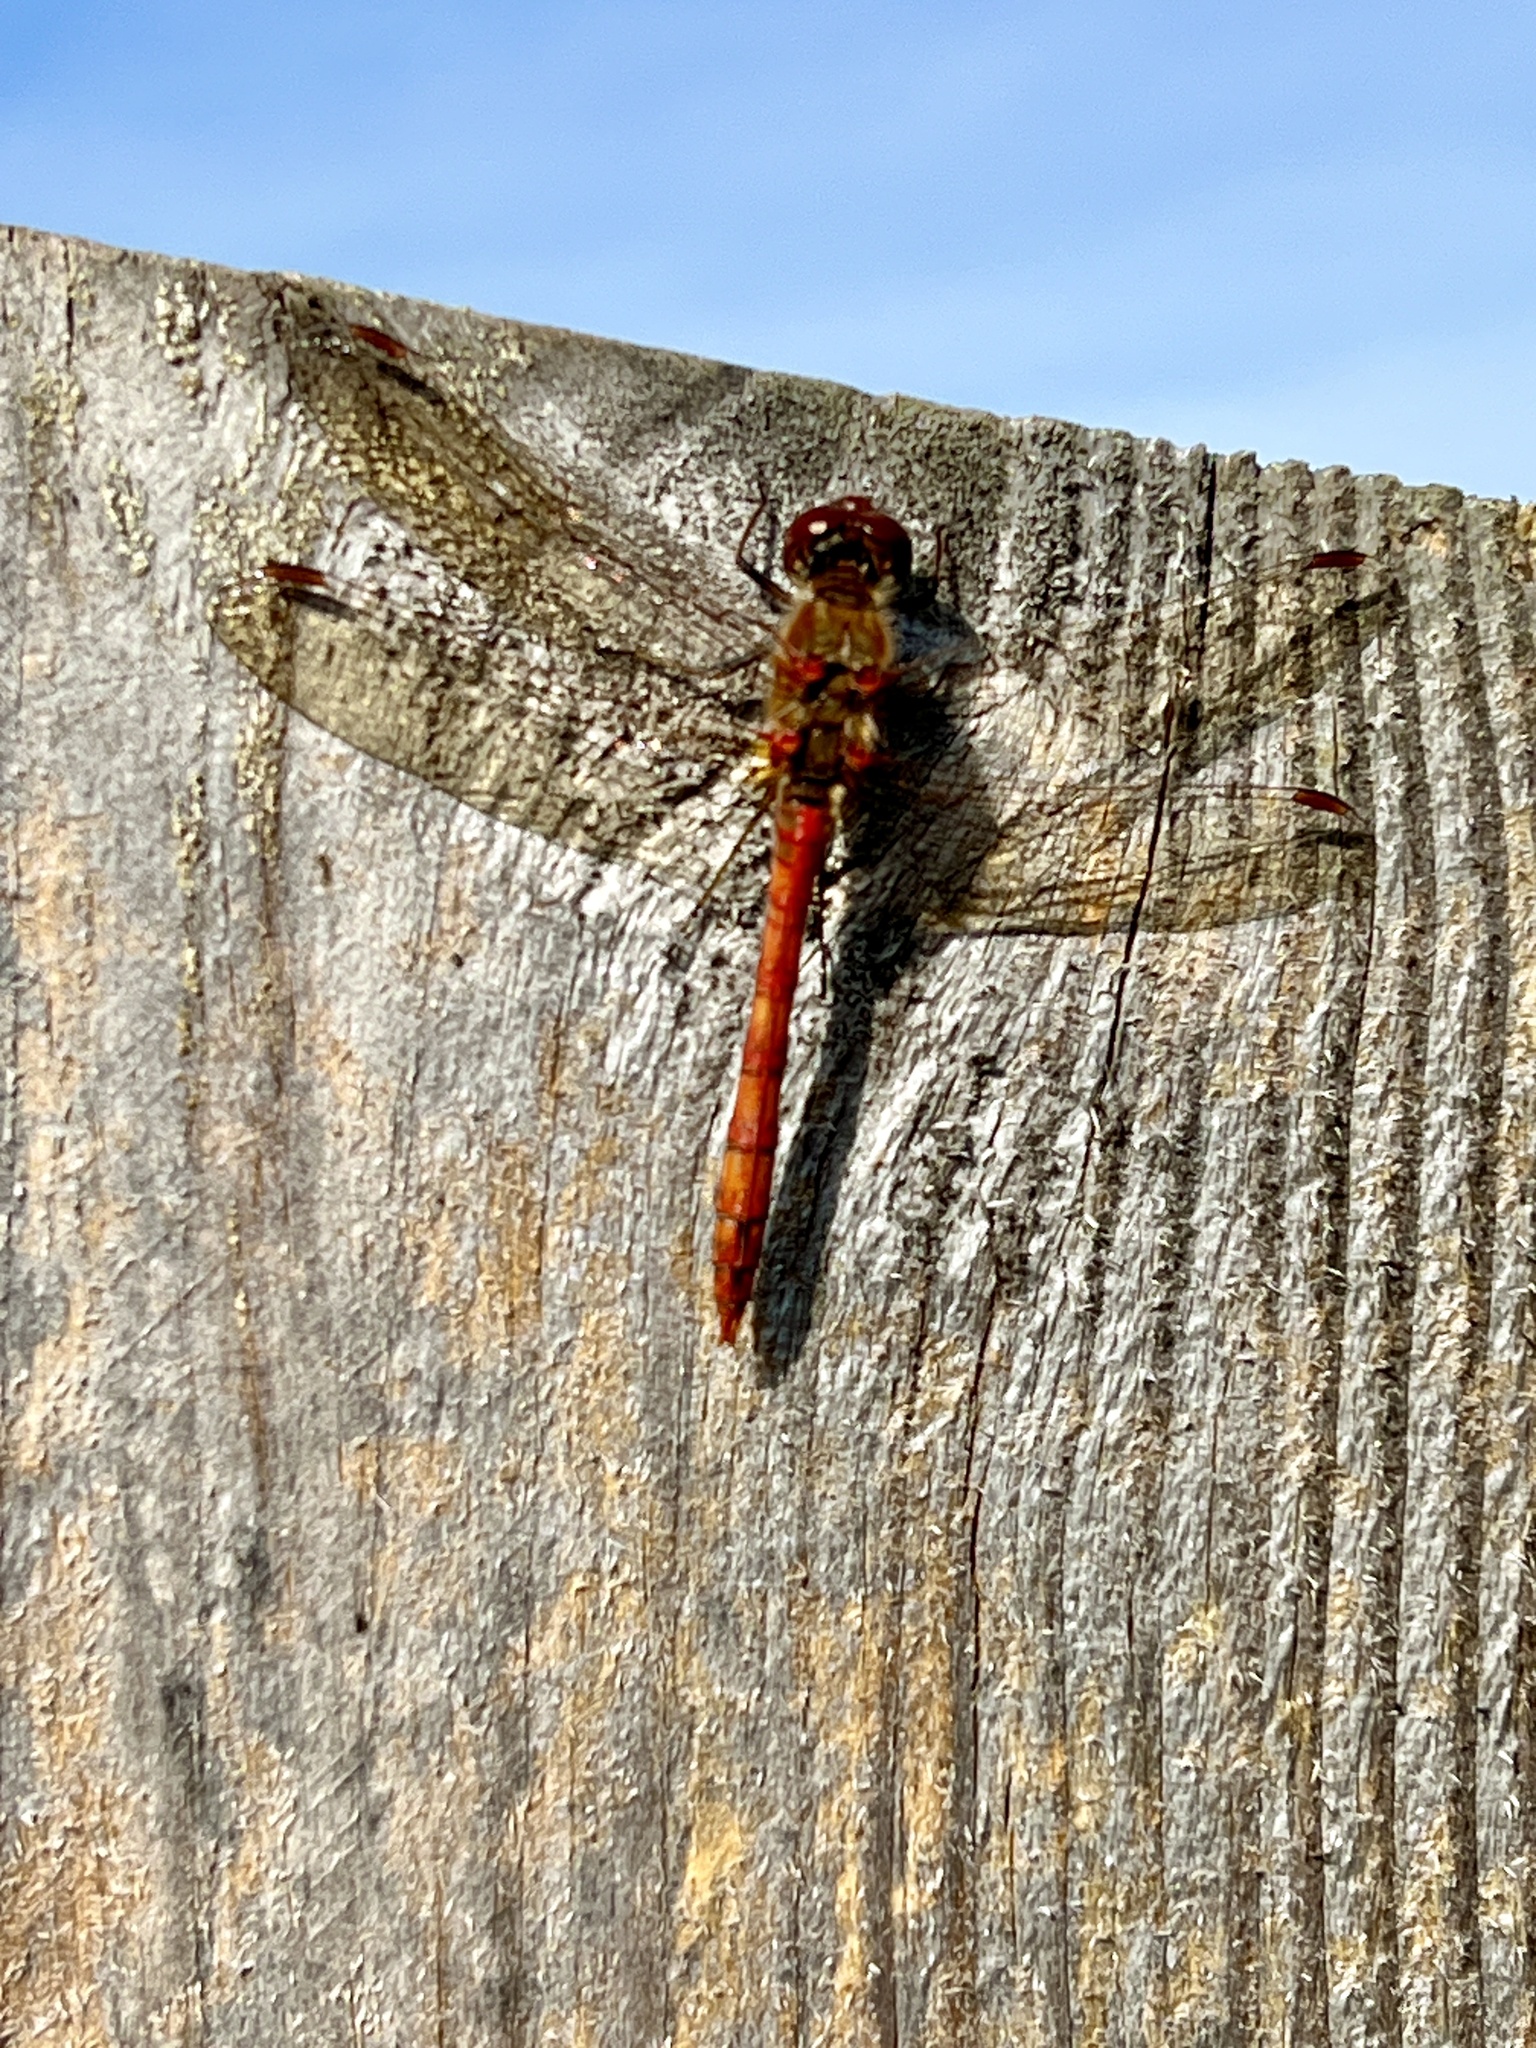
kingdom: Animalia
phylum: Arthropoda
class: Insecta
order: Odonata
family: Libellulidae
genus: Sympetrum
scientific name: Sympetrum striolatum
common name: Common darter
